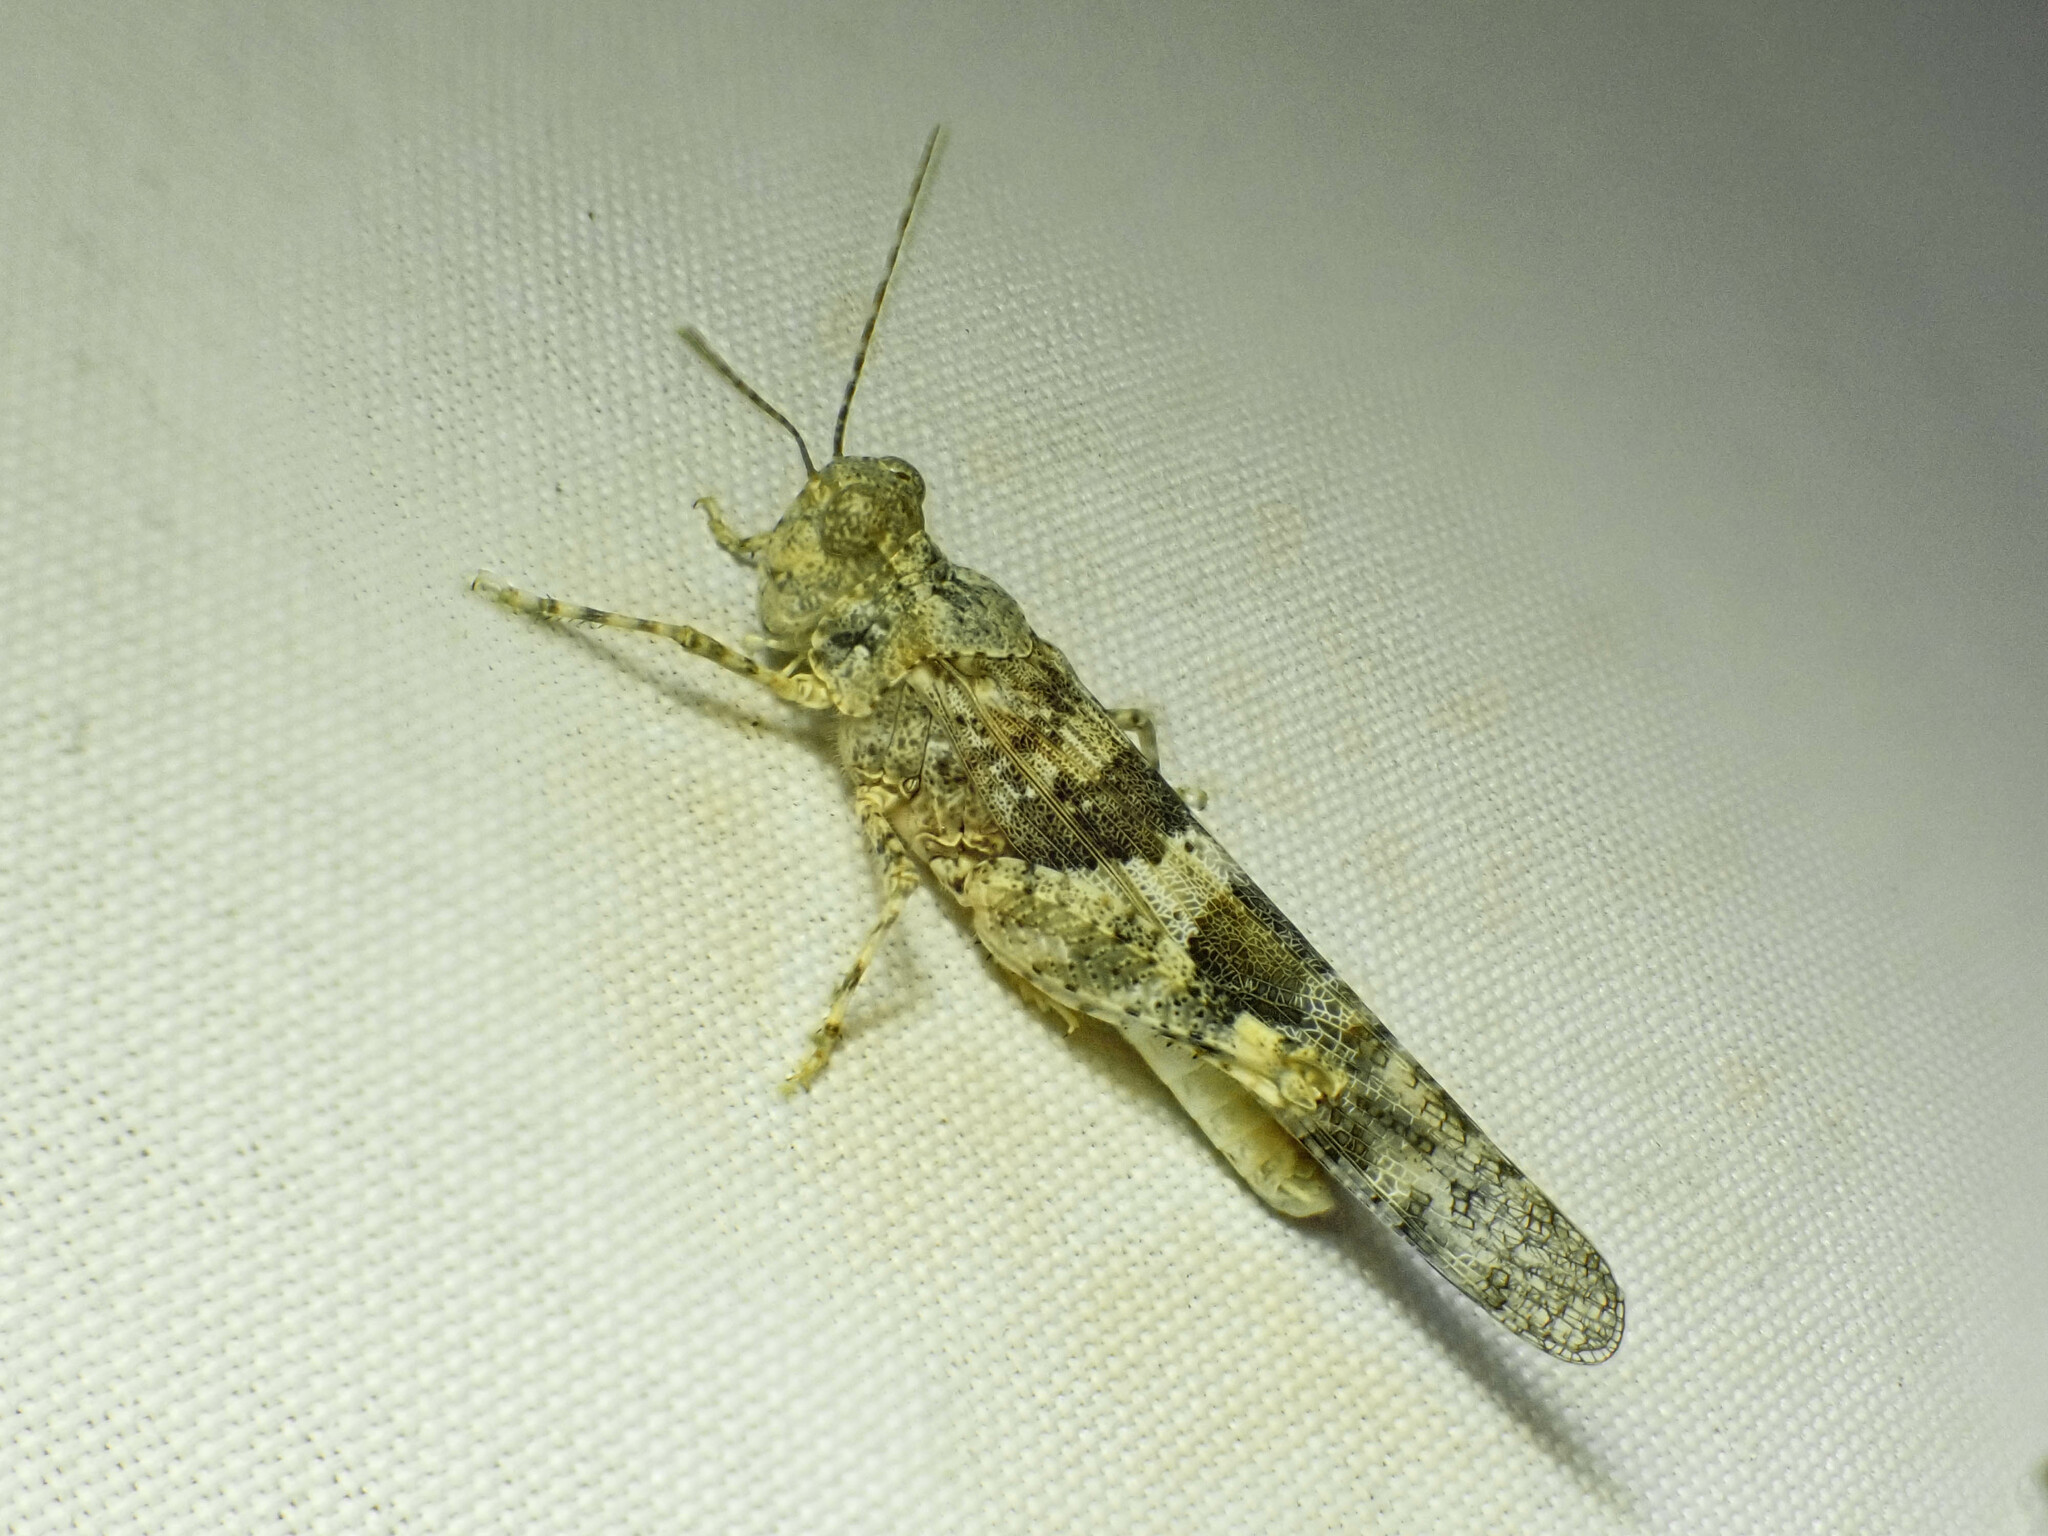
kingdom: Animalia
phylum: Arthropoda
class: Insecta
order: Orthoptera
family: Acrididae
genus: Trimerotropis
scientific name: Trimerotropis pallidipennis
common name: Pallid-winged grasshopper
